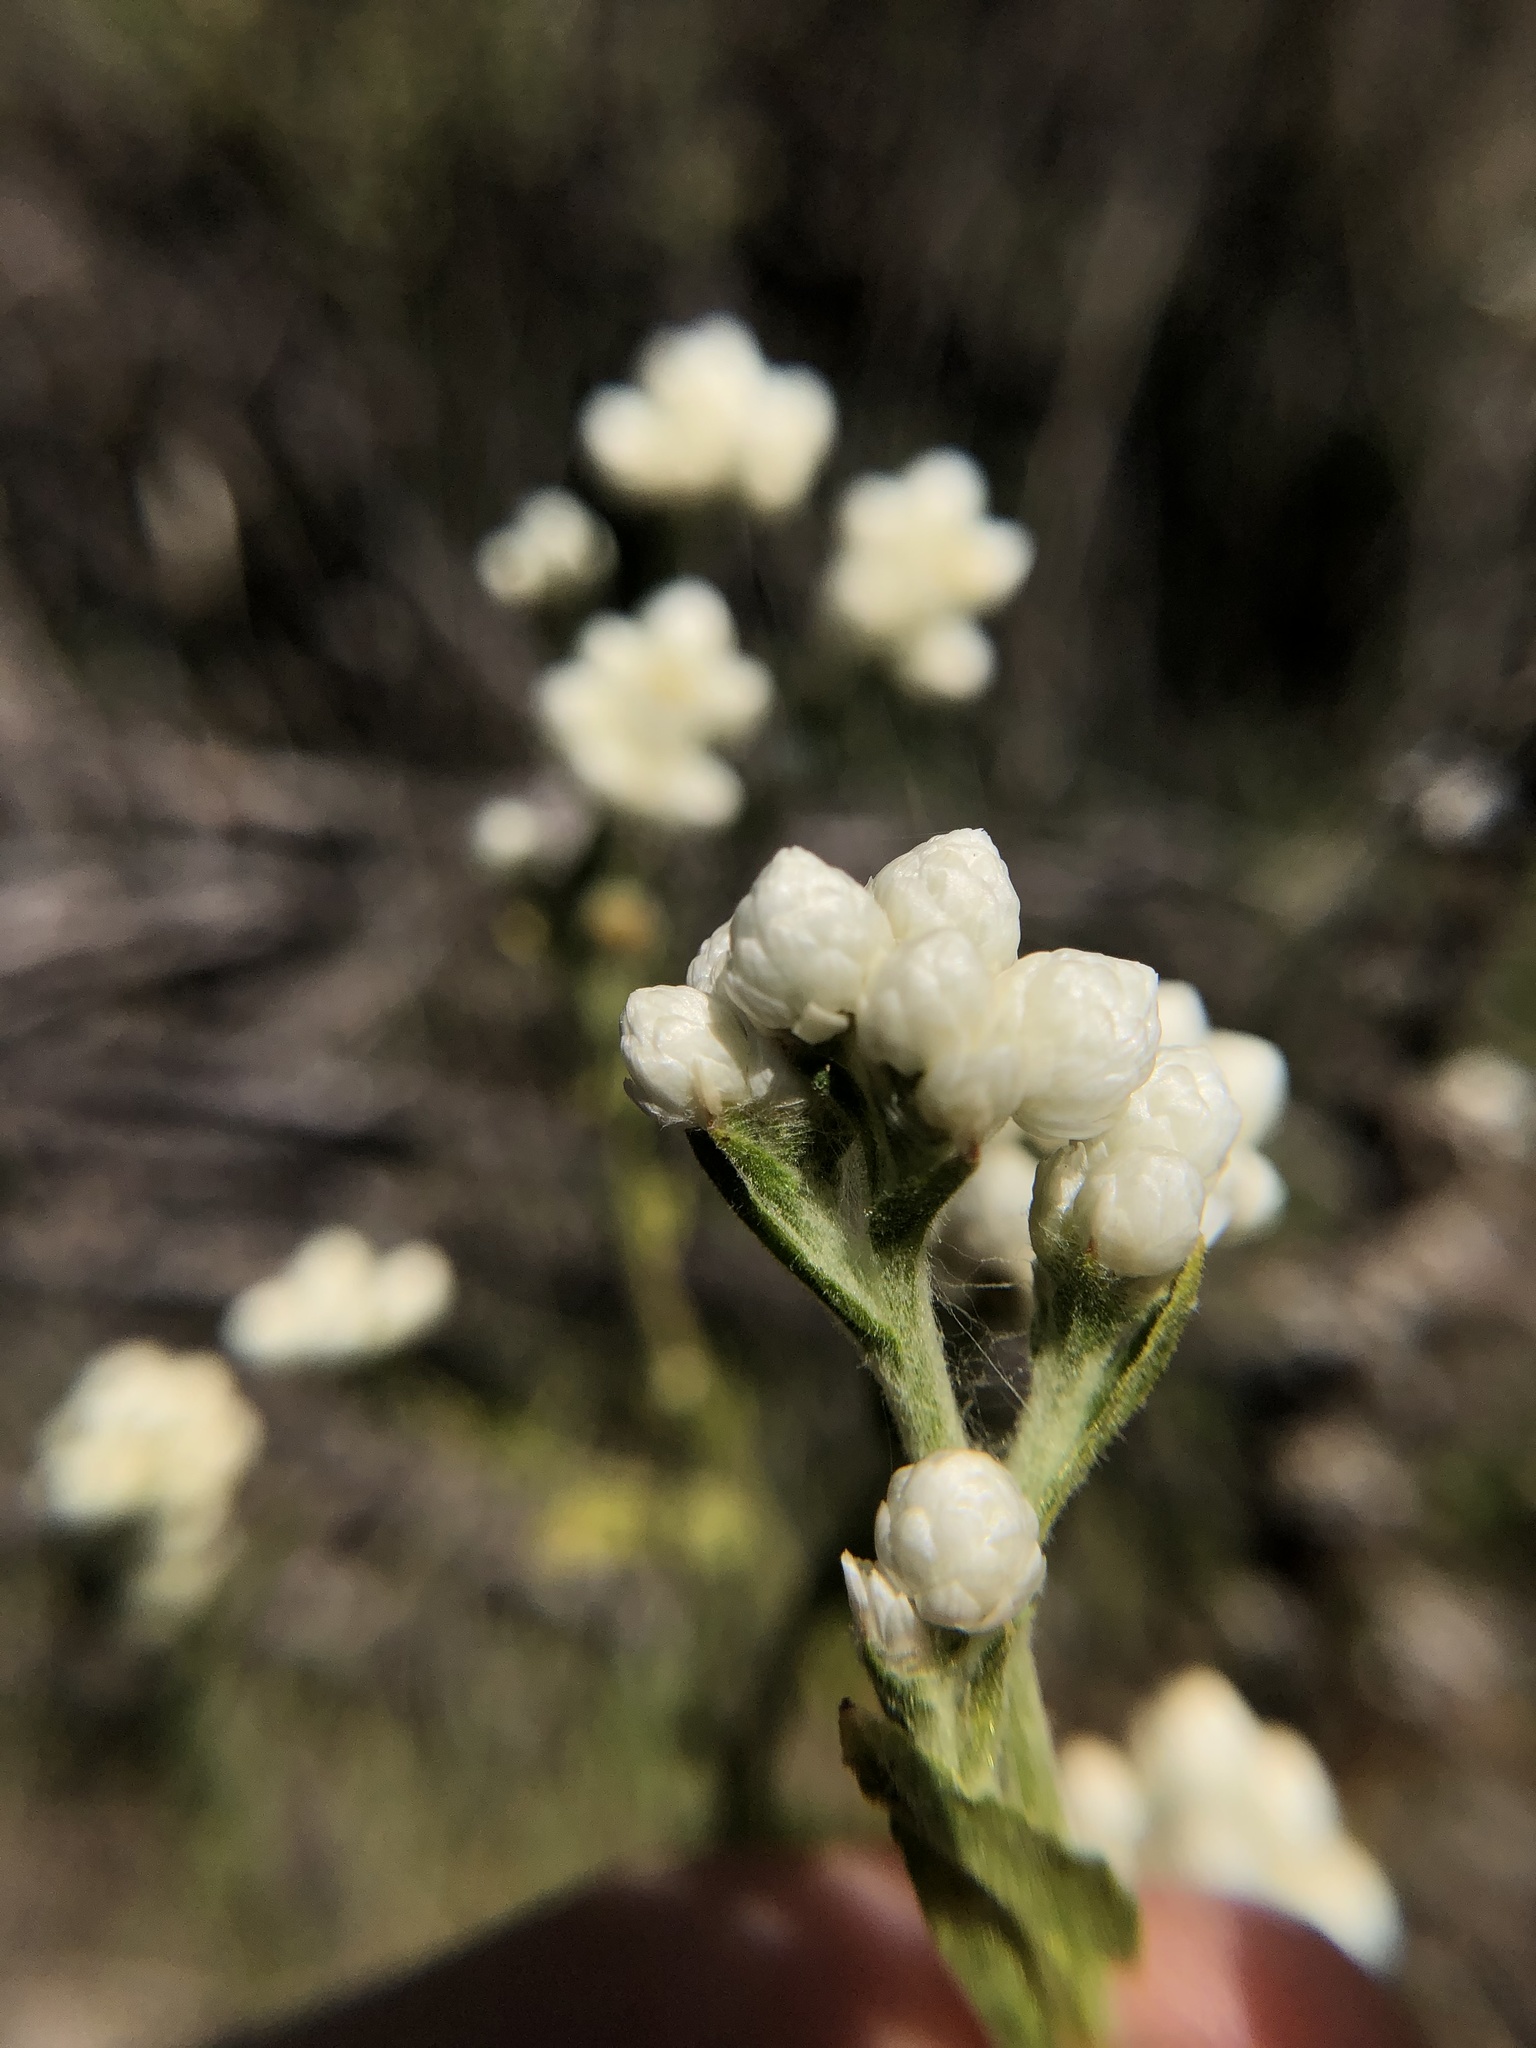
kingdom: Plantae
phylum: Tracheophyta
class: Magnoliopsida
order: Asterales
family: Asteraceae
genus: Pseudognaphalium
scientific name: Pseudognaphalium californicum
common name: California rabbit-tobacco
